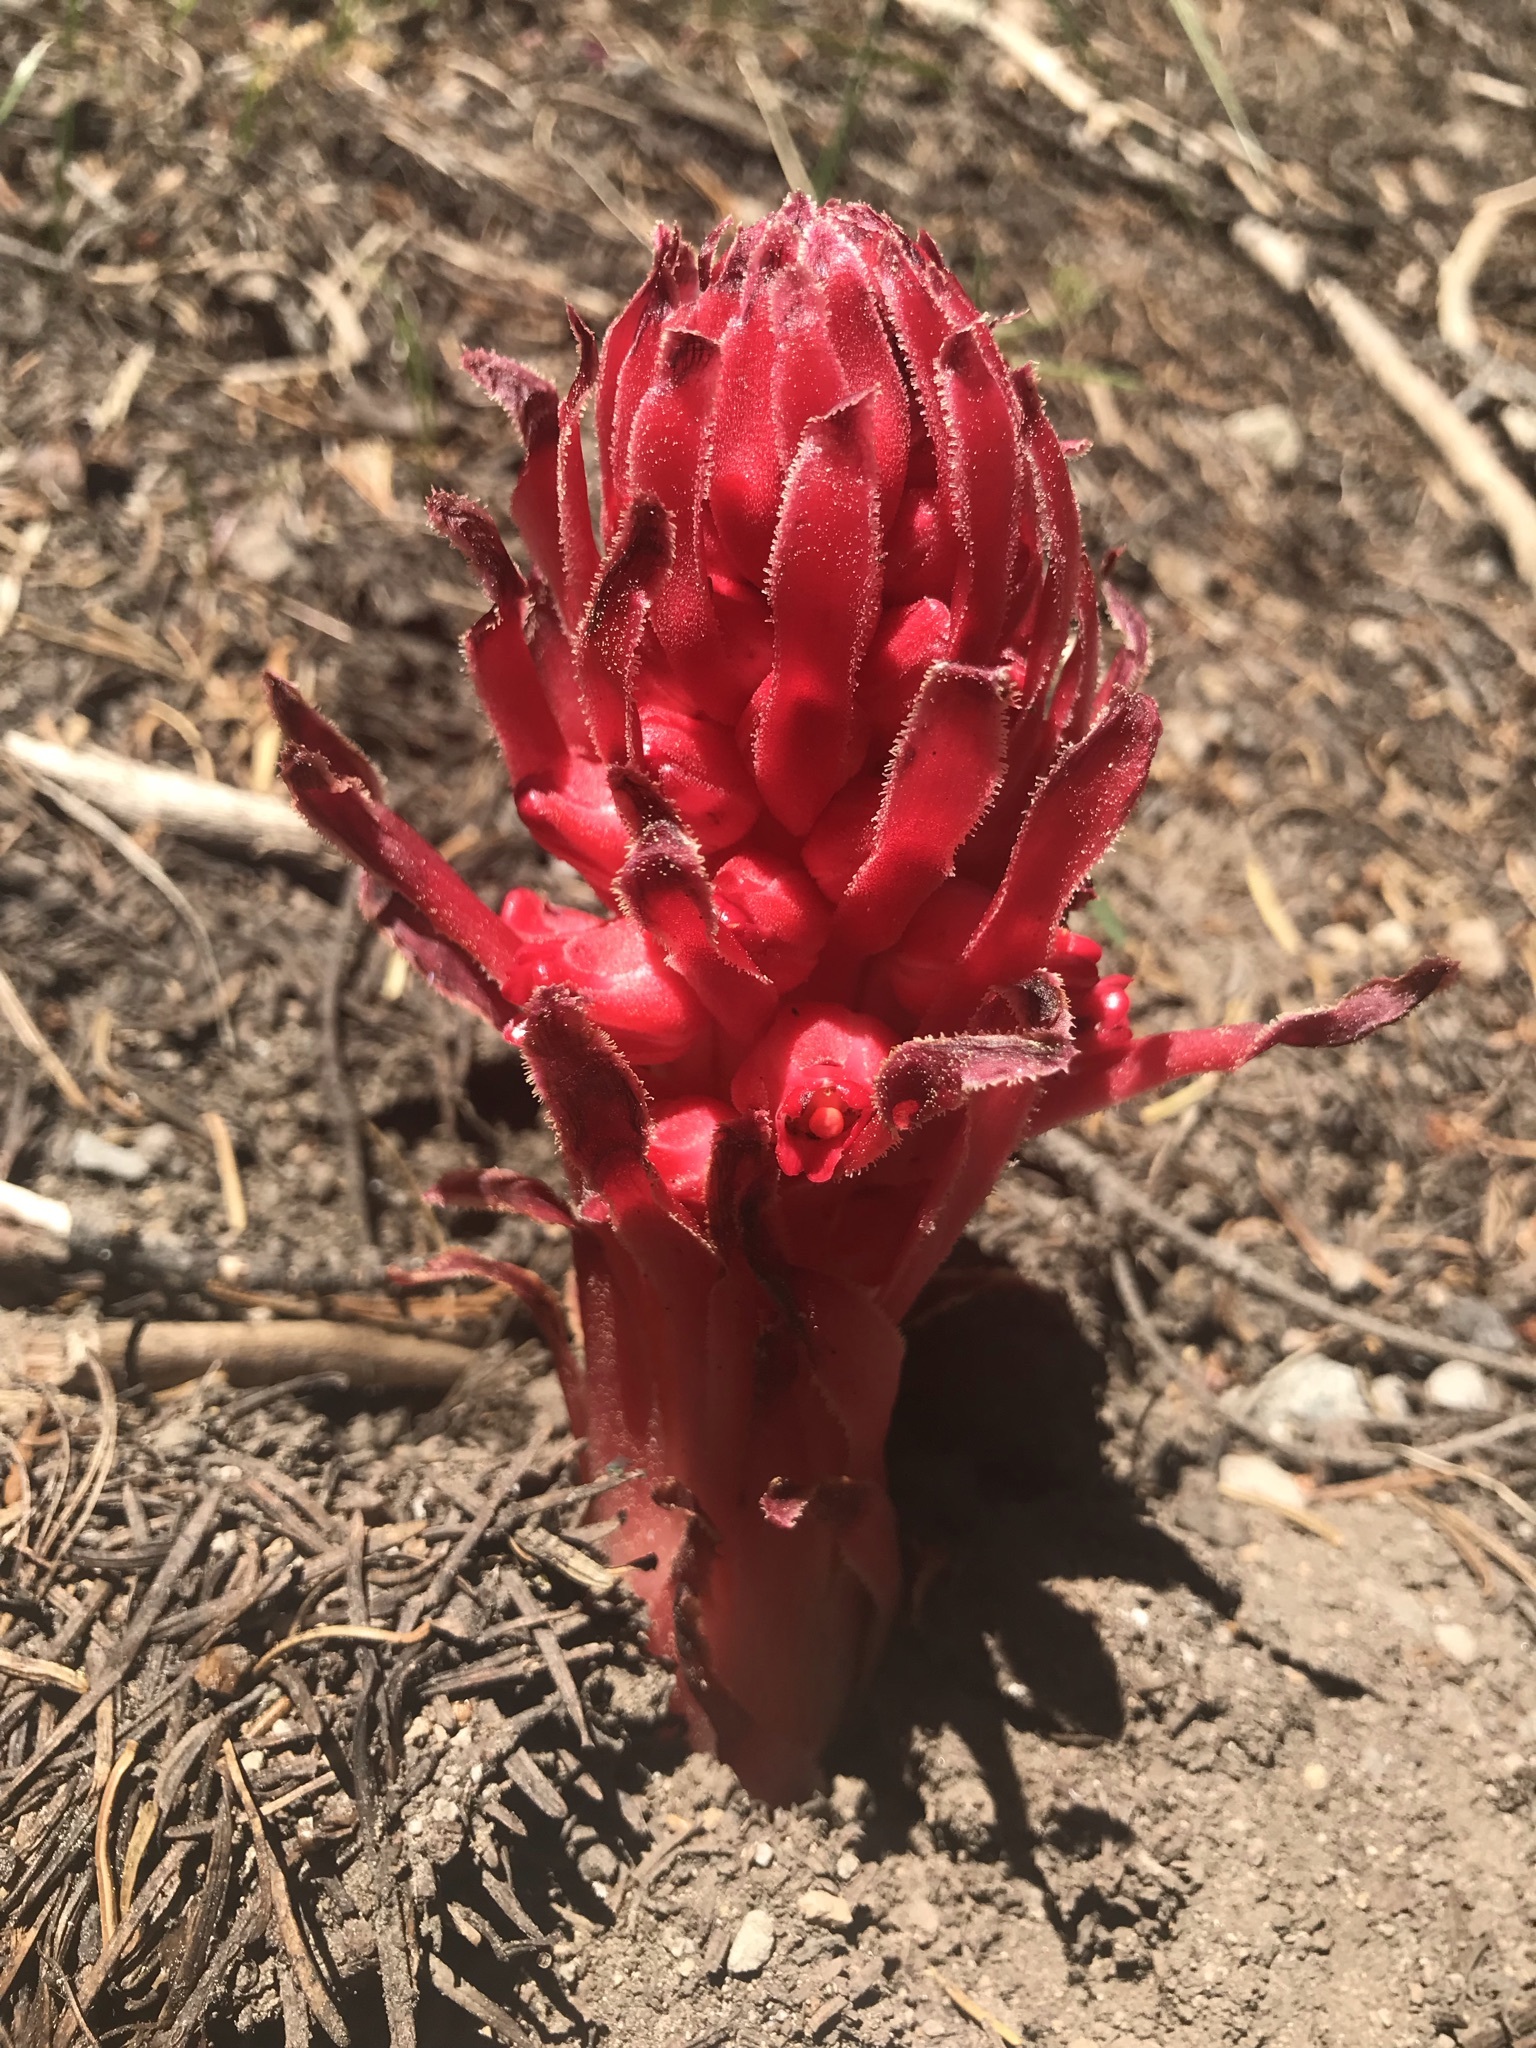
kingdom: Plantae
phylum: Tracheophyta
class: Magnoliopsida
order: Ericales
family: Ericaceae
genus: Sarcodes
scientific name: Sarcodes sanguinea
